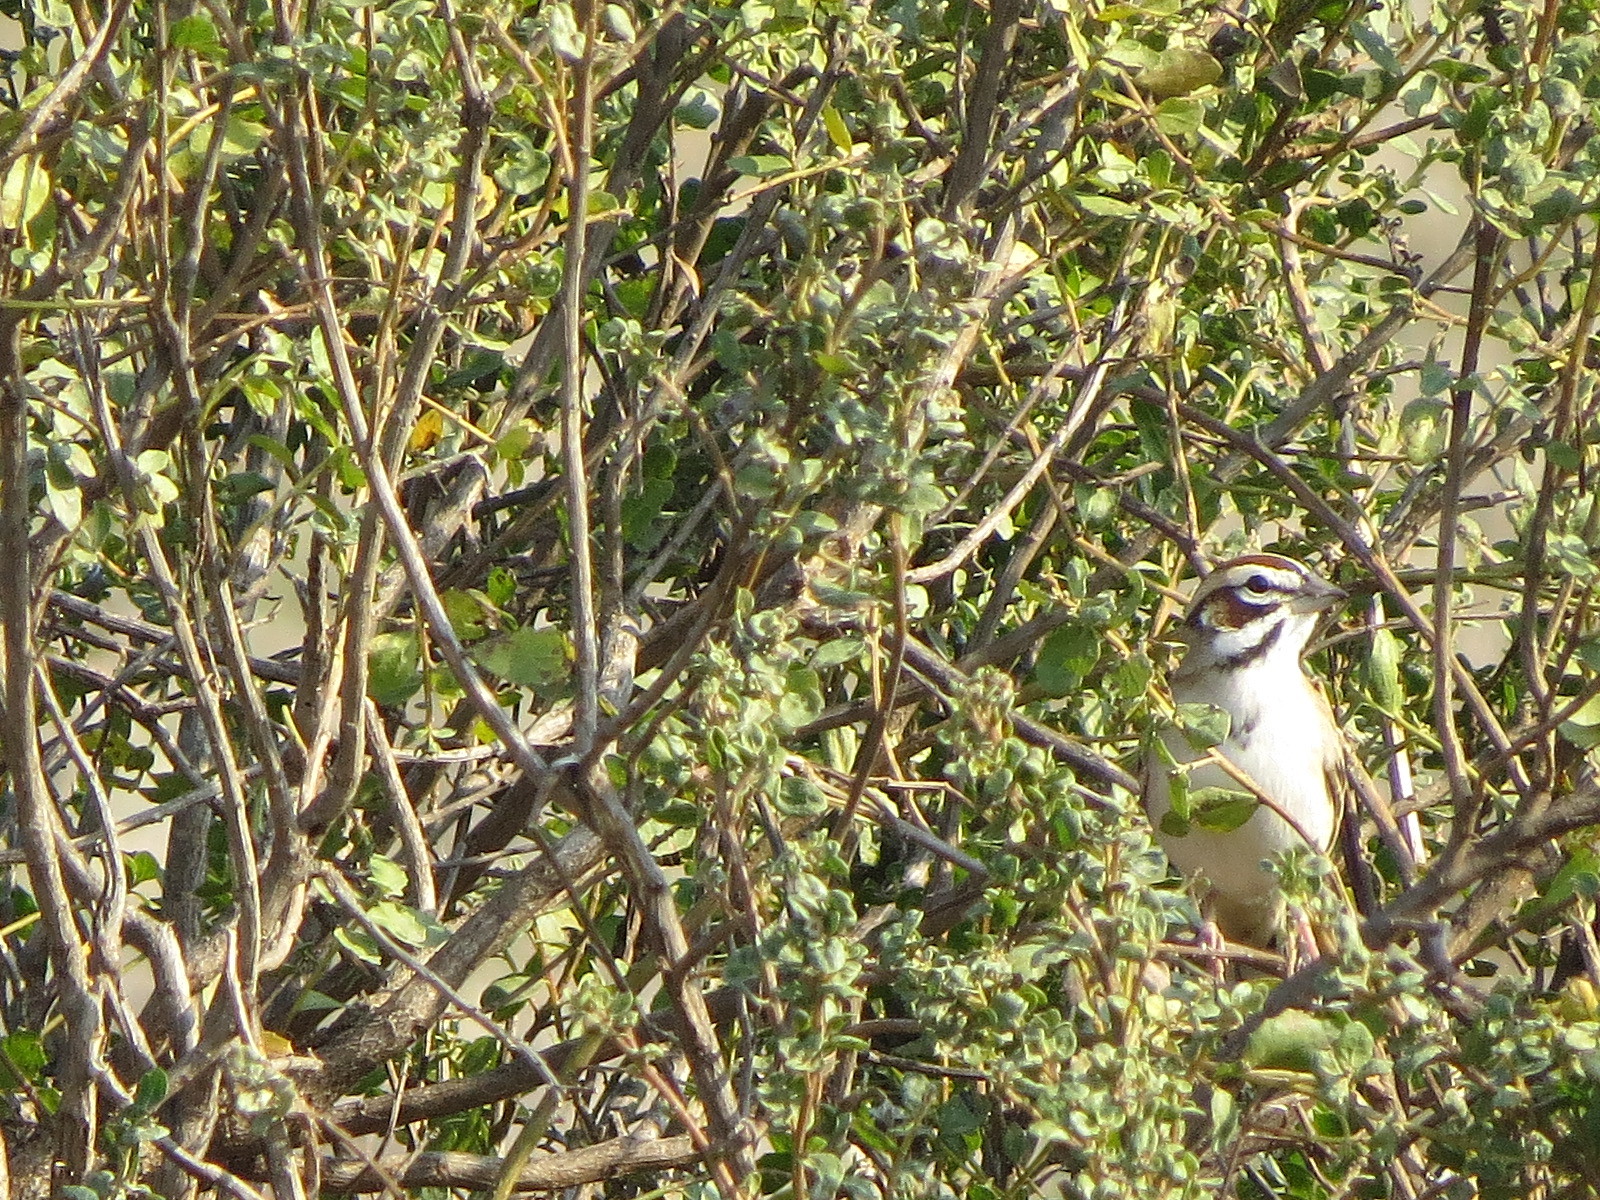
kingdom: Animalia
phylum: Chordata
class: Aves
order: Passeriformes
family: Passerellidae
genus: Chondestes
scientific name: Chondestes grammacus
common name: Lark sparrow
